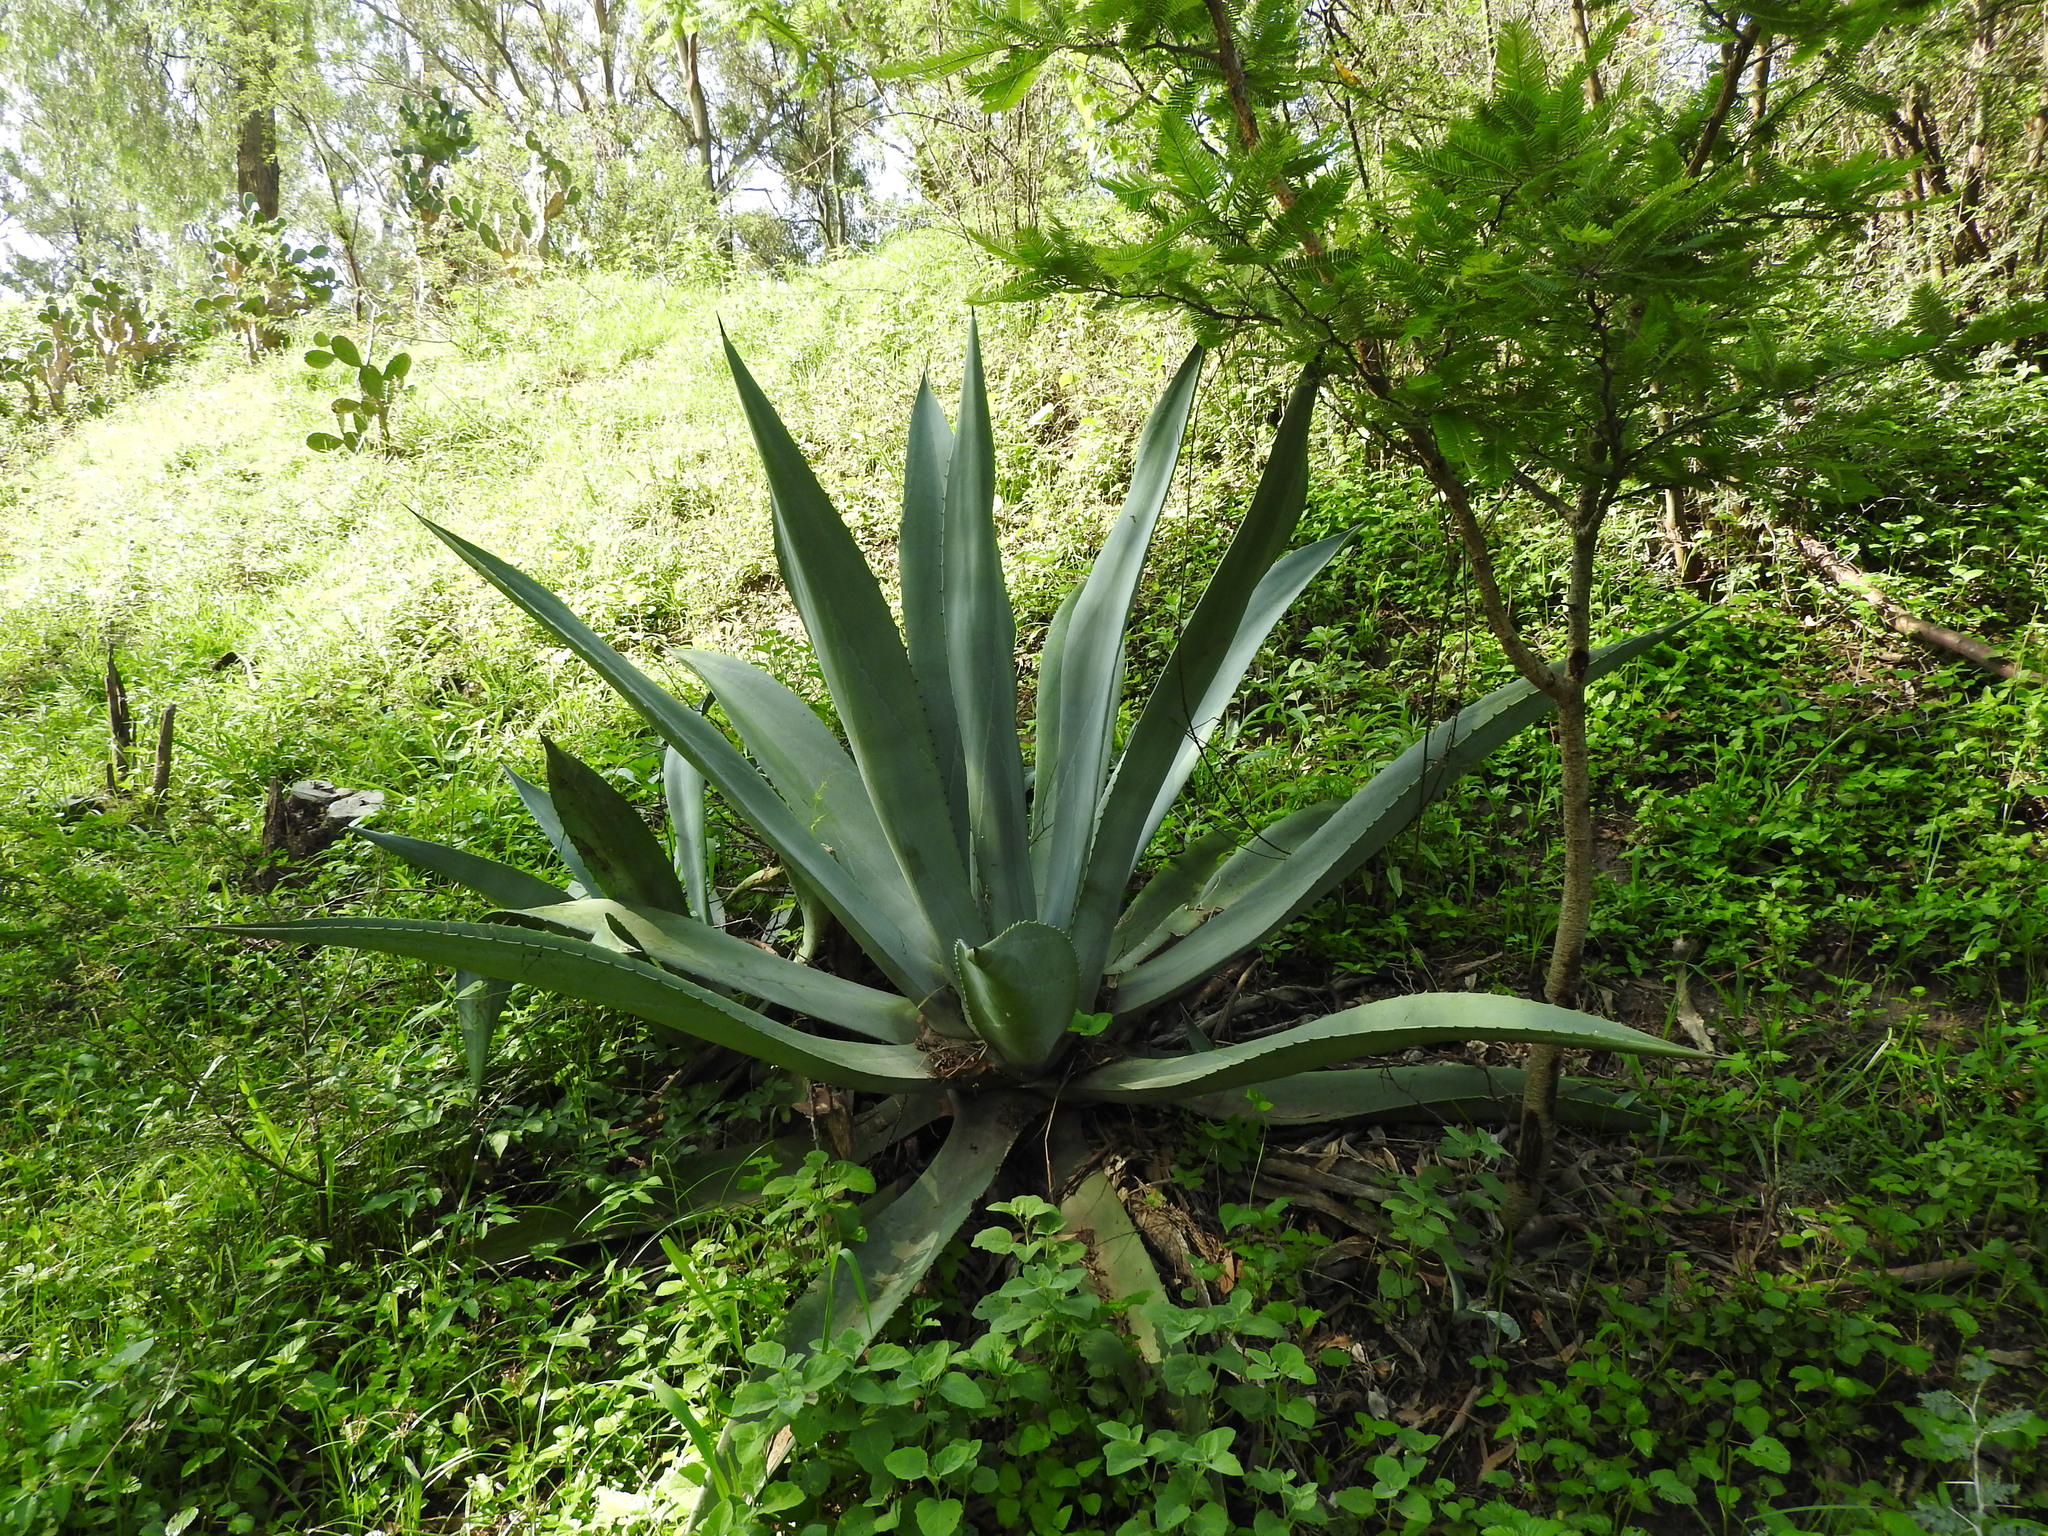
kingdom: Plantae
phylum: Tracheophyta
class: Liliopsida
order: Asparagales
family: Asparagaceae
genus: Agave
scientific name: Agave americana
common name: Centuryplant
